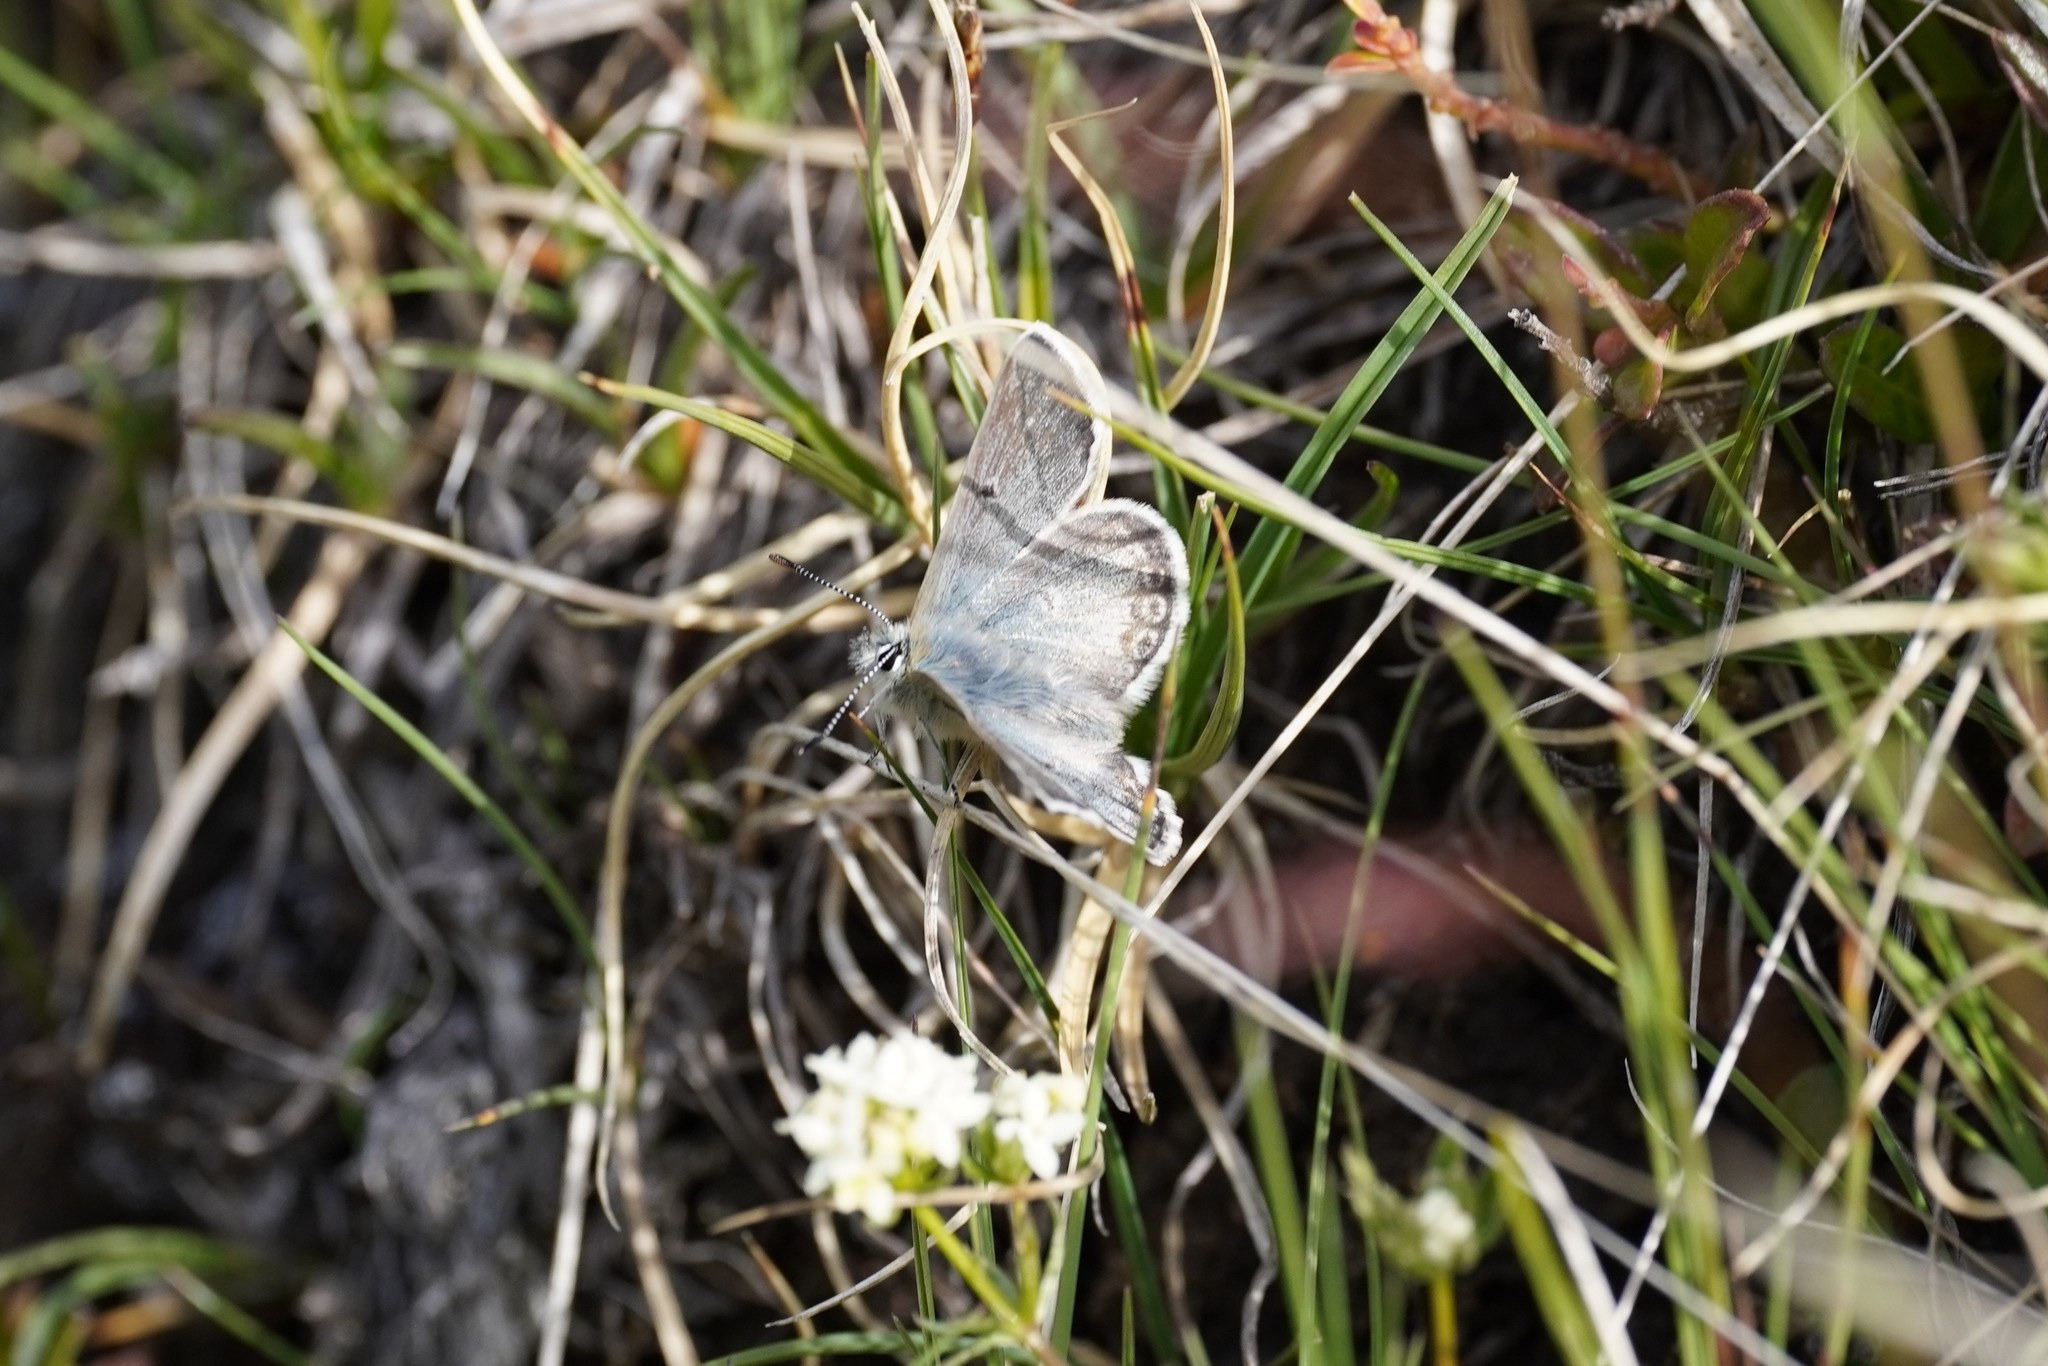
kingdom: Animalia
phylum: Arthropoda
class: Insecta
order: Lepidoptera
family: Lycaenidae
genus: Agriades
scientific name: Agriades glandon
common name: Glandon blue
